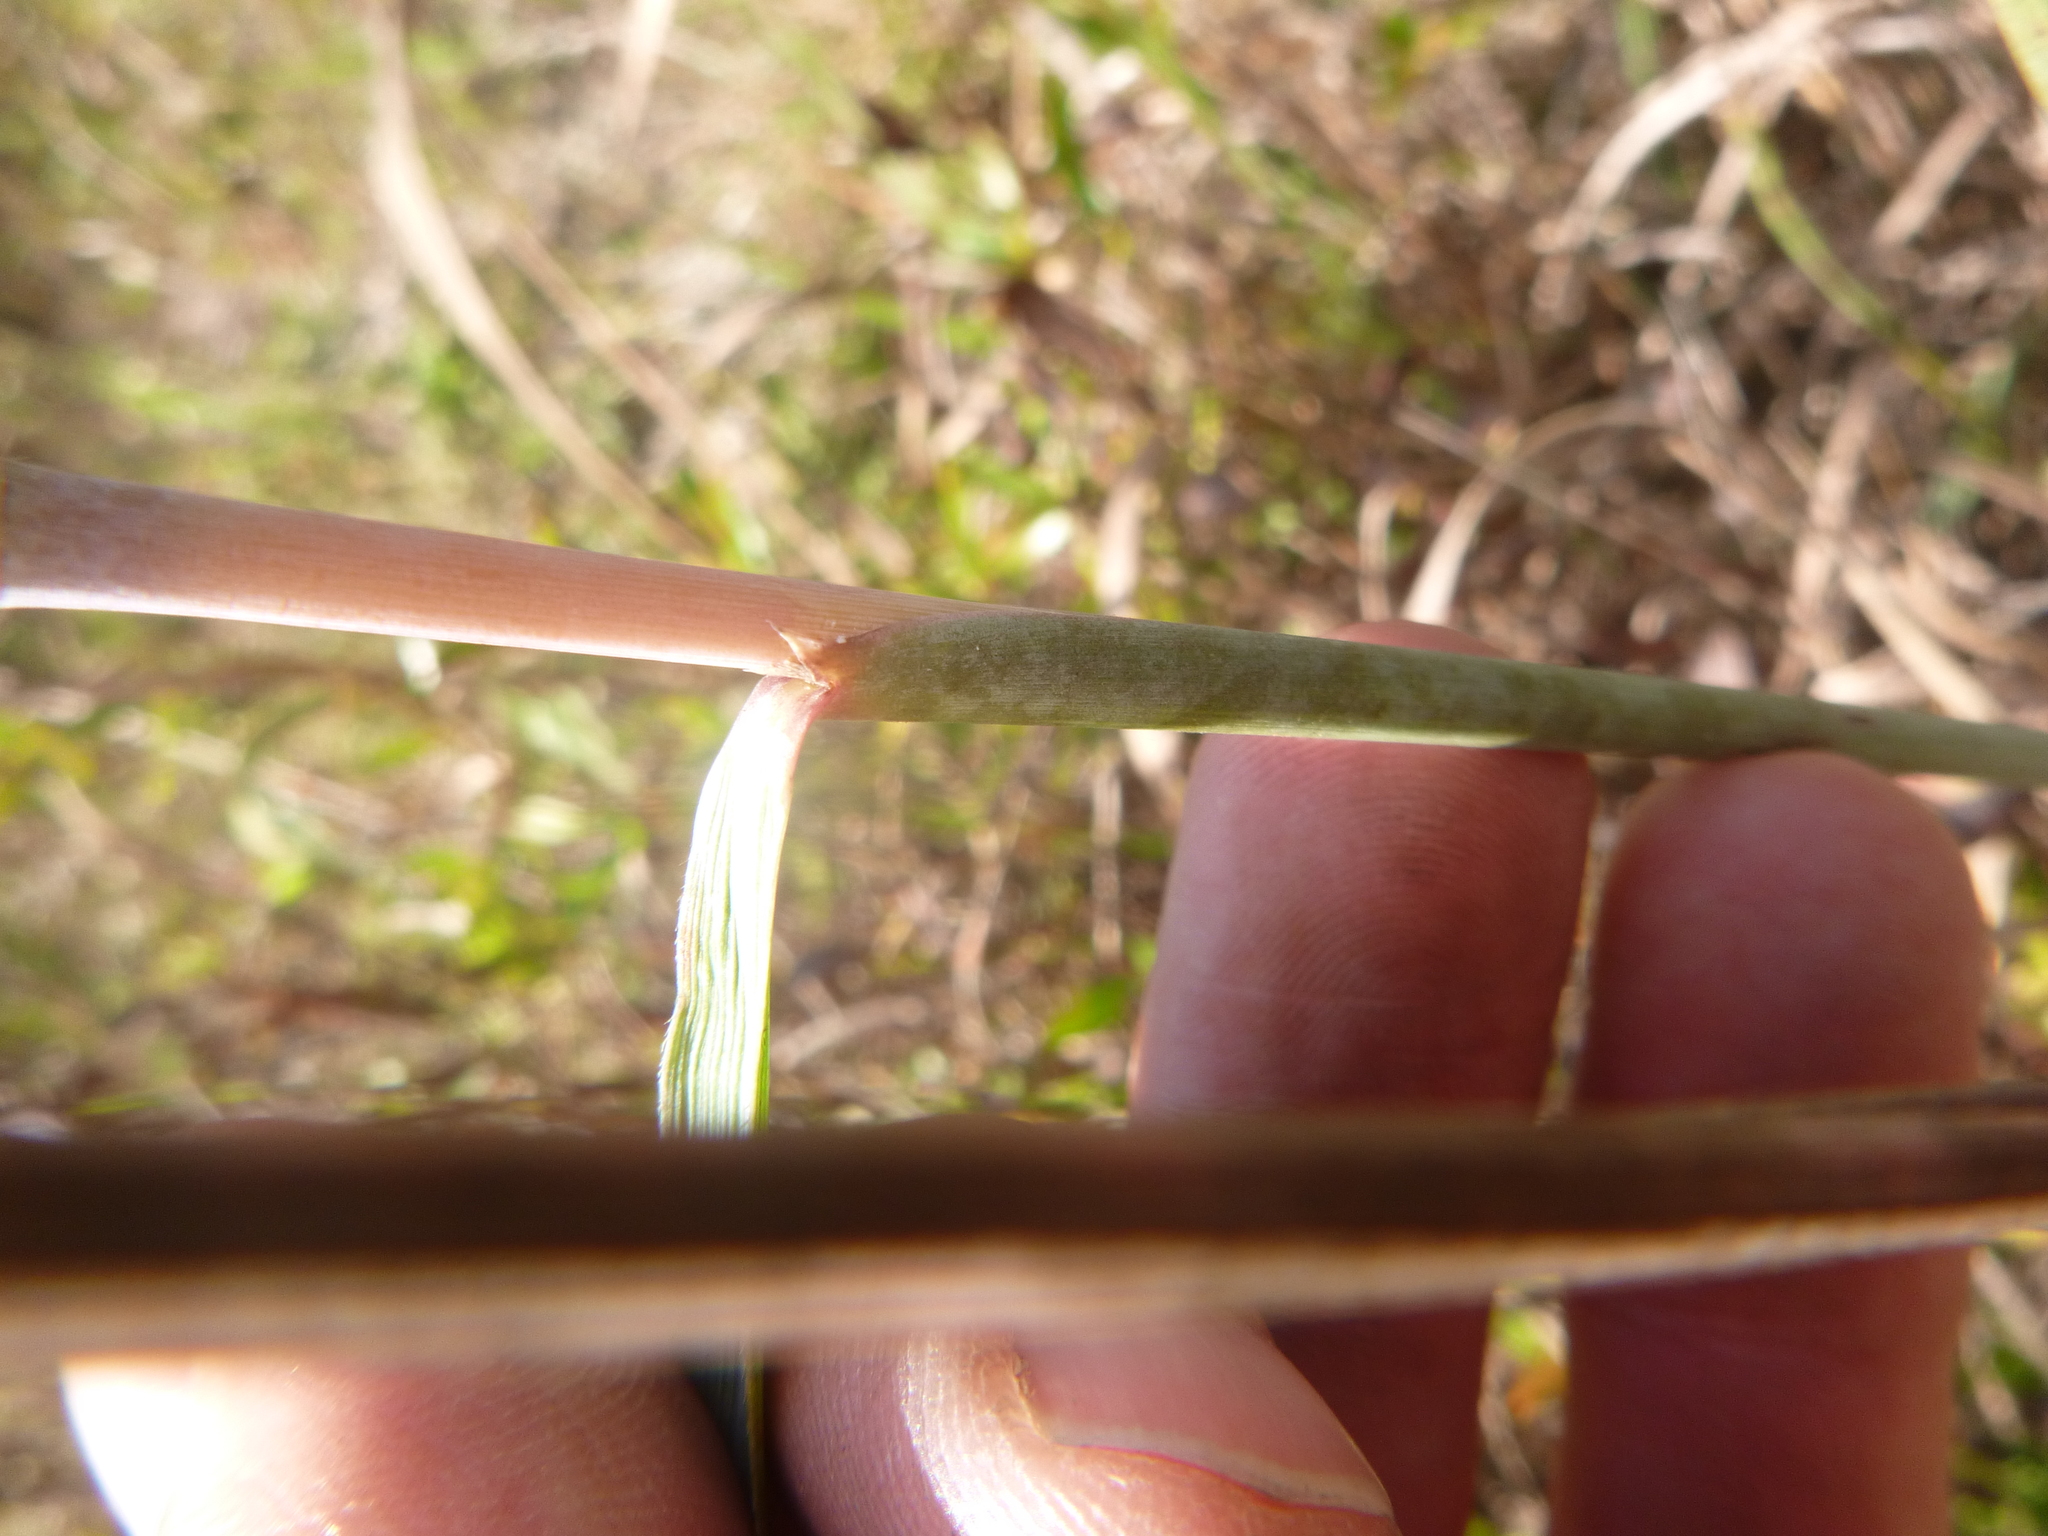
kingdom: Plantae
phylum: Tracheophyta
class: Liliopsida
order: Poales
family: Poaceae
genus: Sorghastrum
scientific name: Sorghastrum nutans
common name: Indian grass
